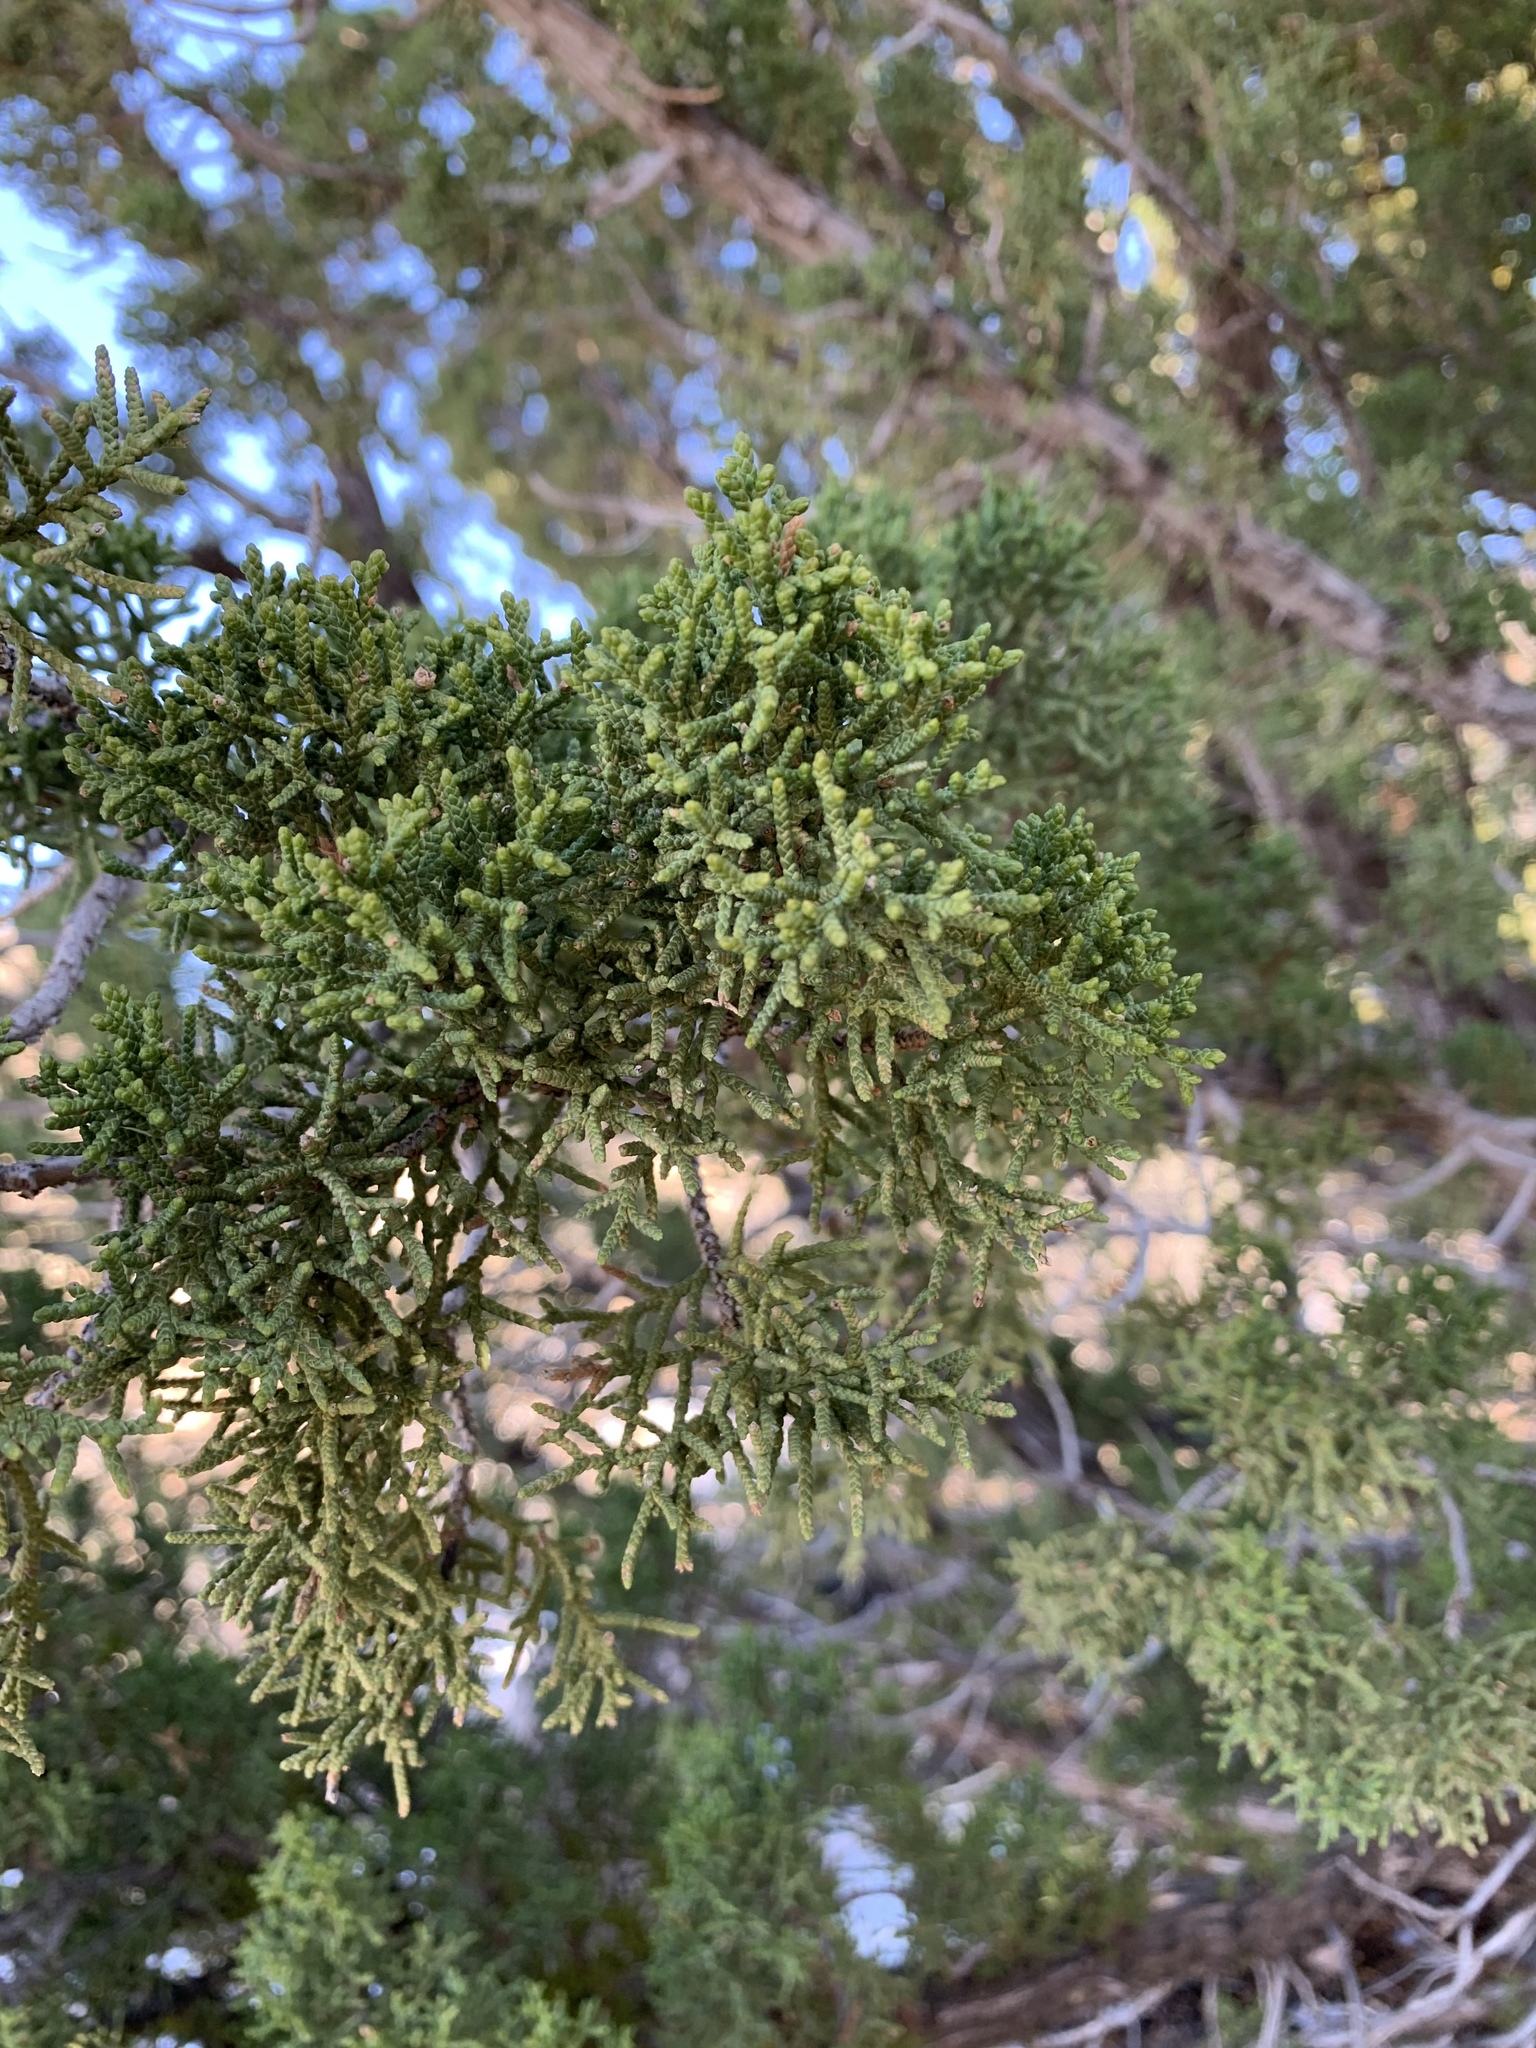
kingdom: Plantae
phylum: Tracheophyta
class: Pinopsida
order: Pinales
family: Cupressaceae
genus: Juniperus
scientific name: Juniperus monosperma
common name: One-seed juniper
